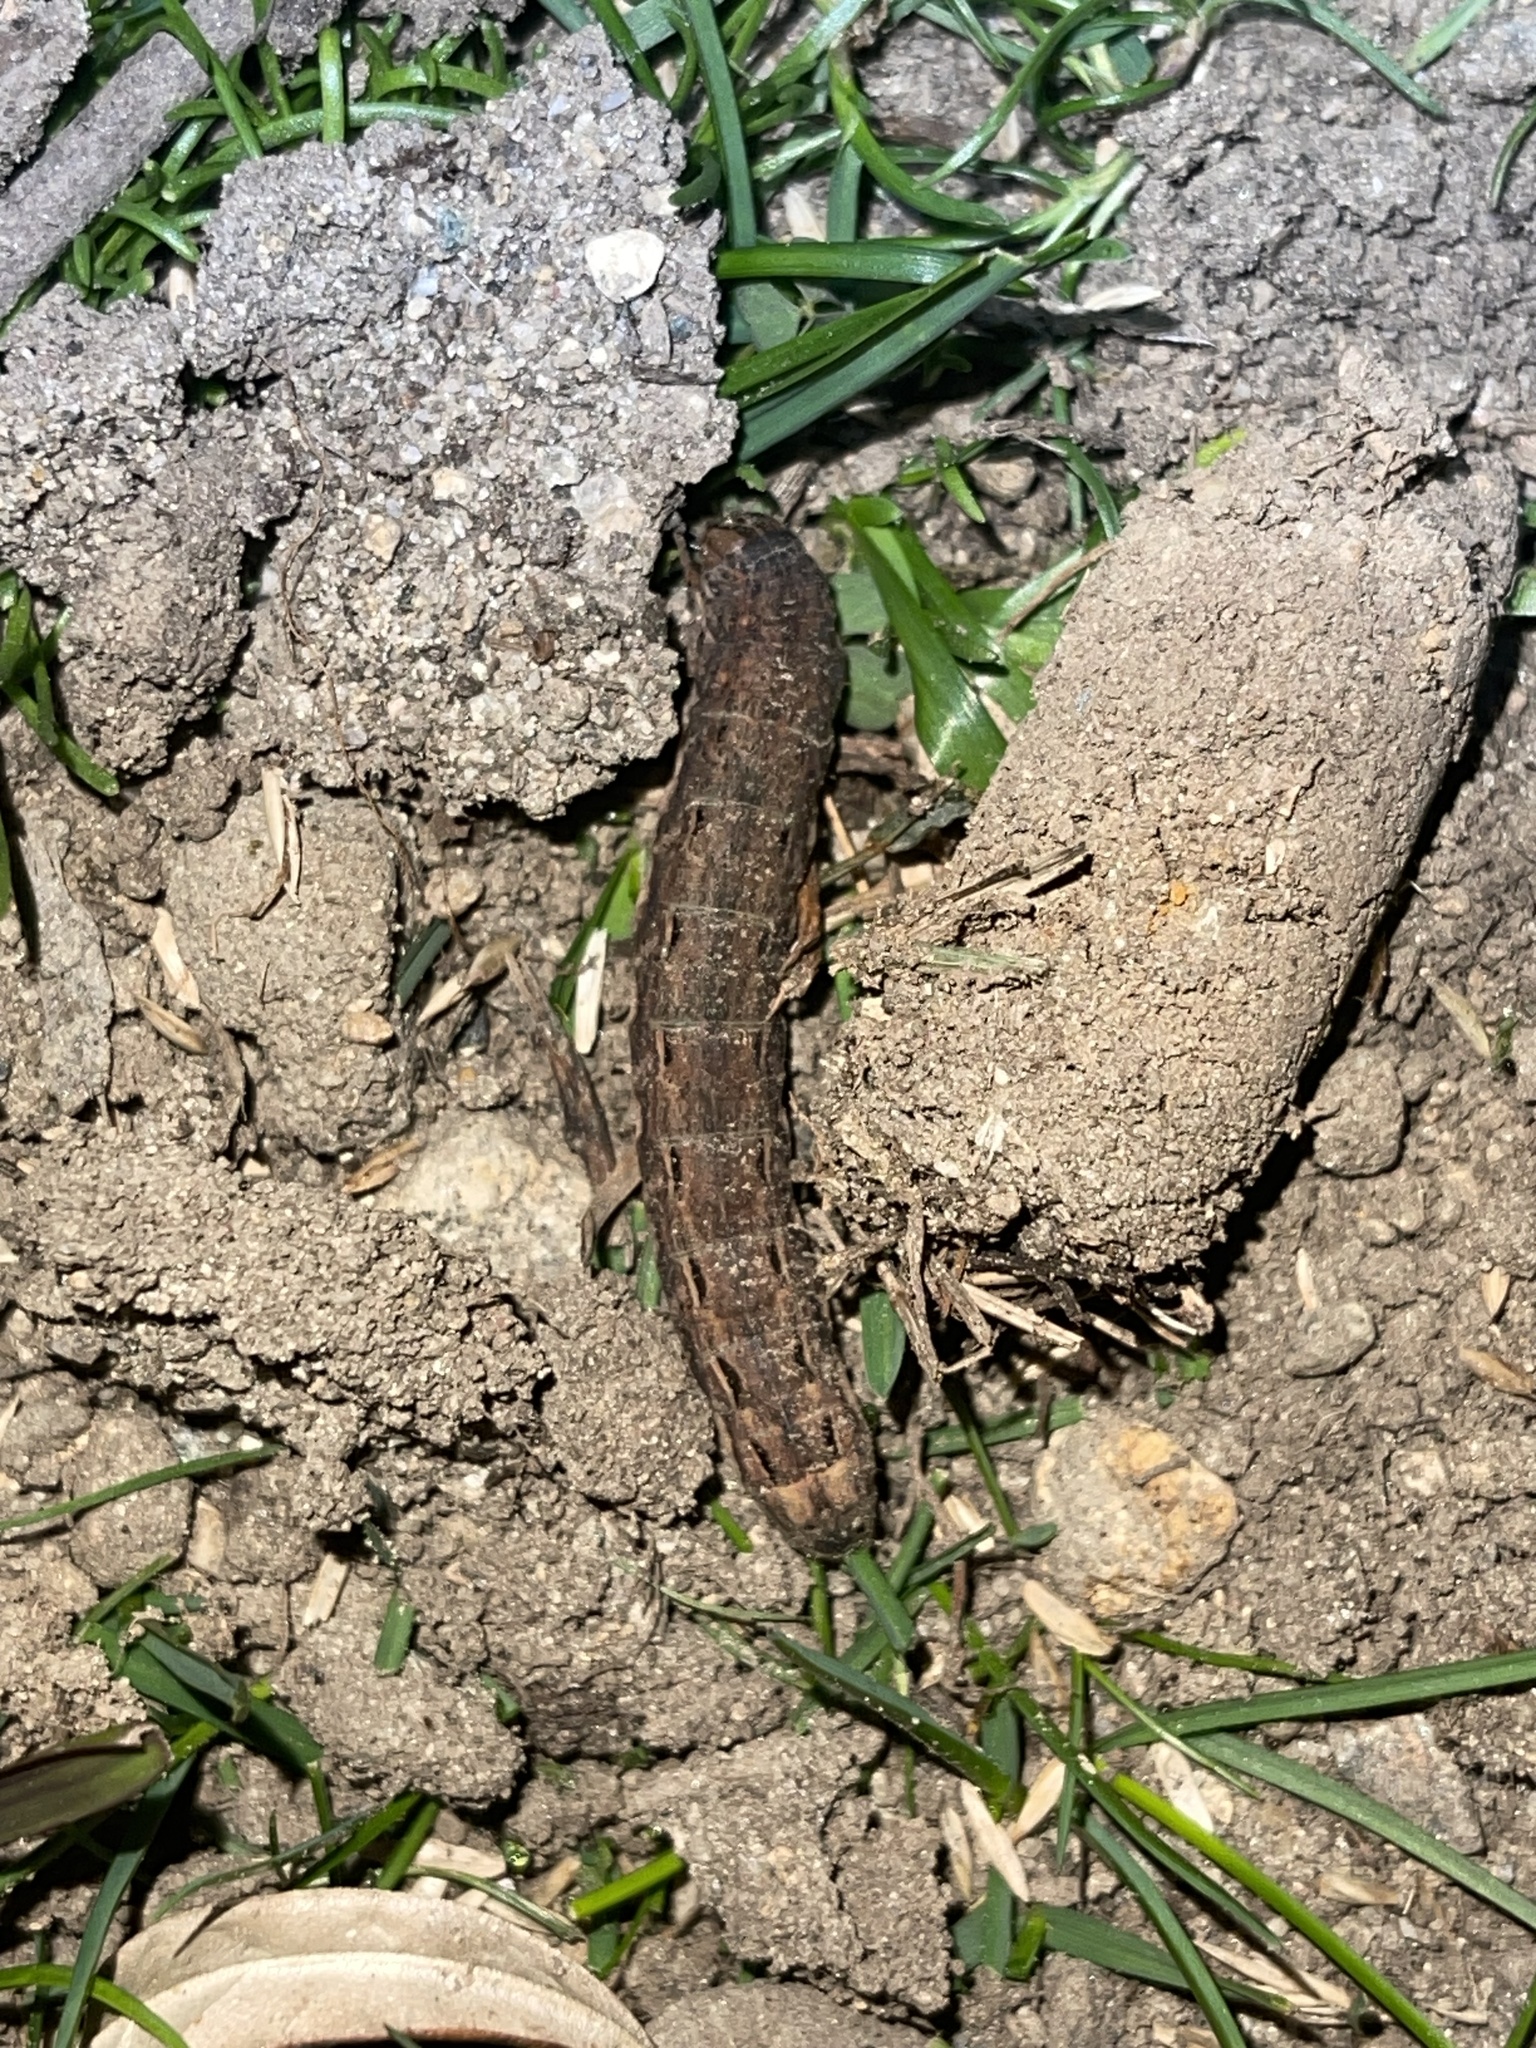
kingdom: Animalia
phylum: Arthropoda
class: Insecta
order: Lepidoptera
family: Noctuidae
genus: Noctua
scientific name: Noctua pronuba
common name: Large yellow underwing
